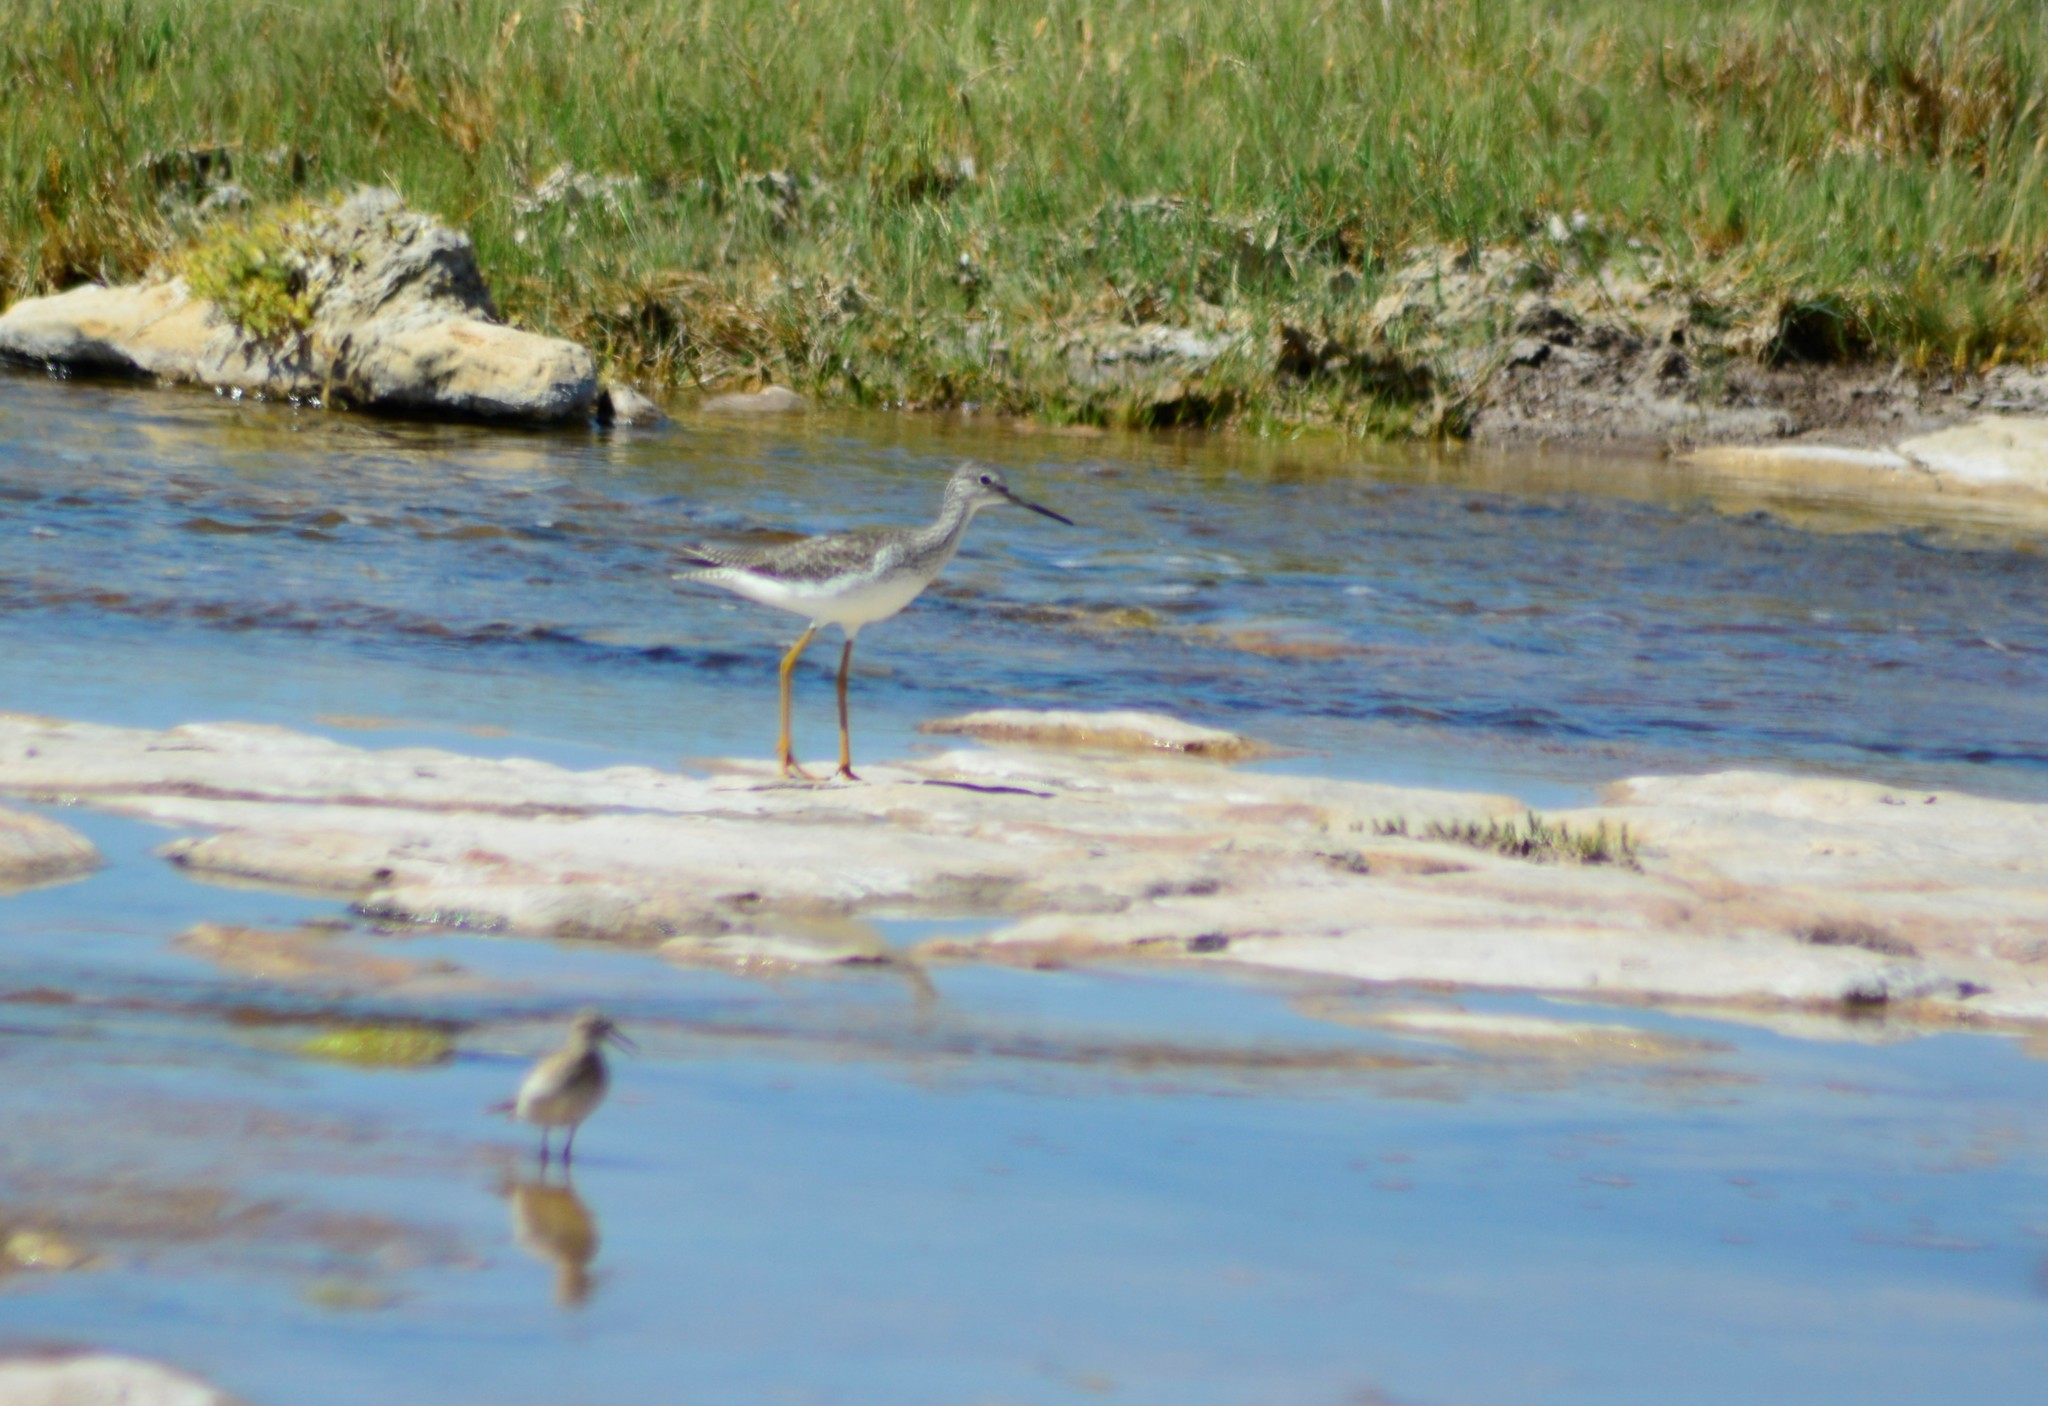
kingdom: Animalia
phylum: Chordata
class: Aves
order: Charadriiformes
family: Scolopacidae
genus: Tringa
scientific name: Tringa melanoleuca
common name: Greater yellowlegs
